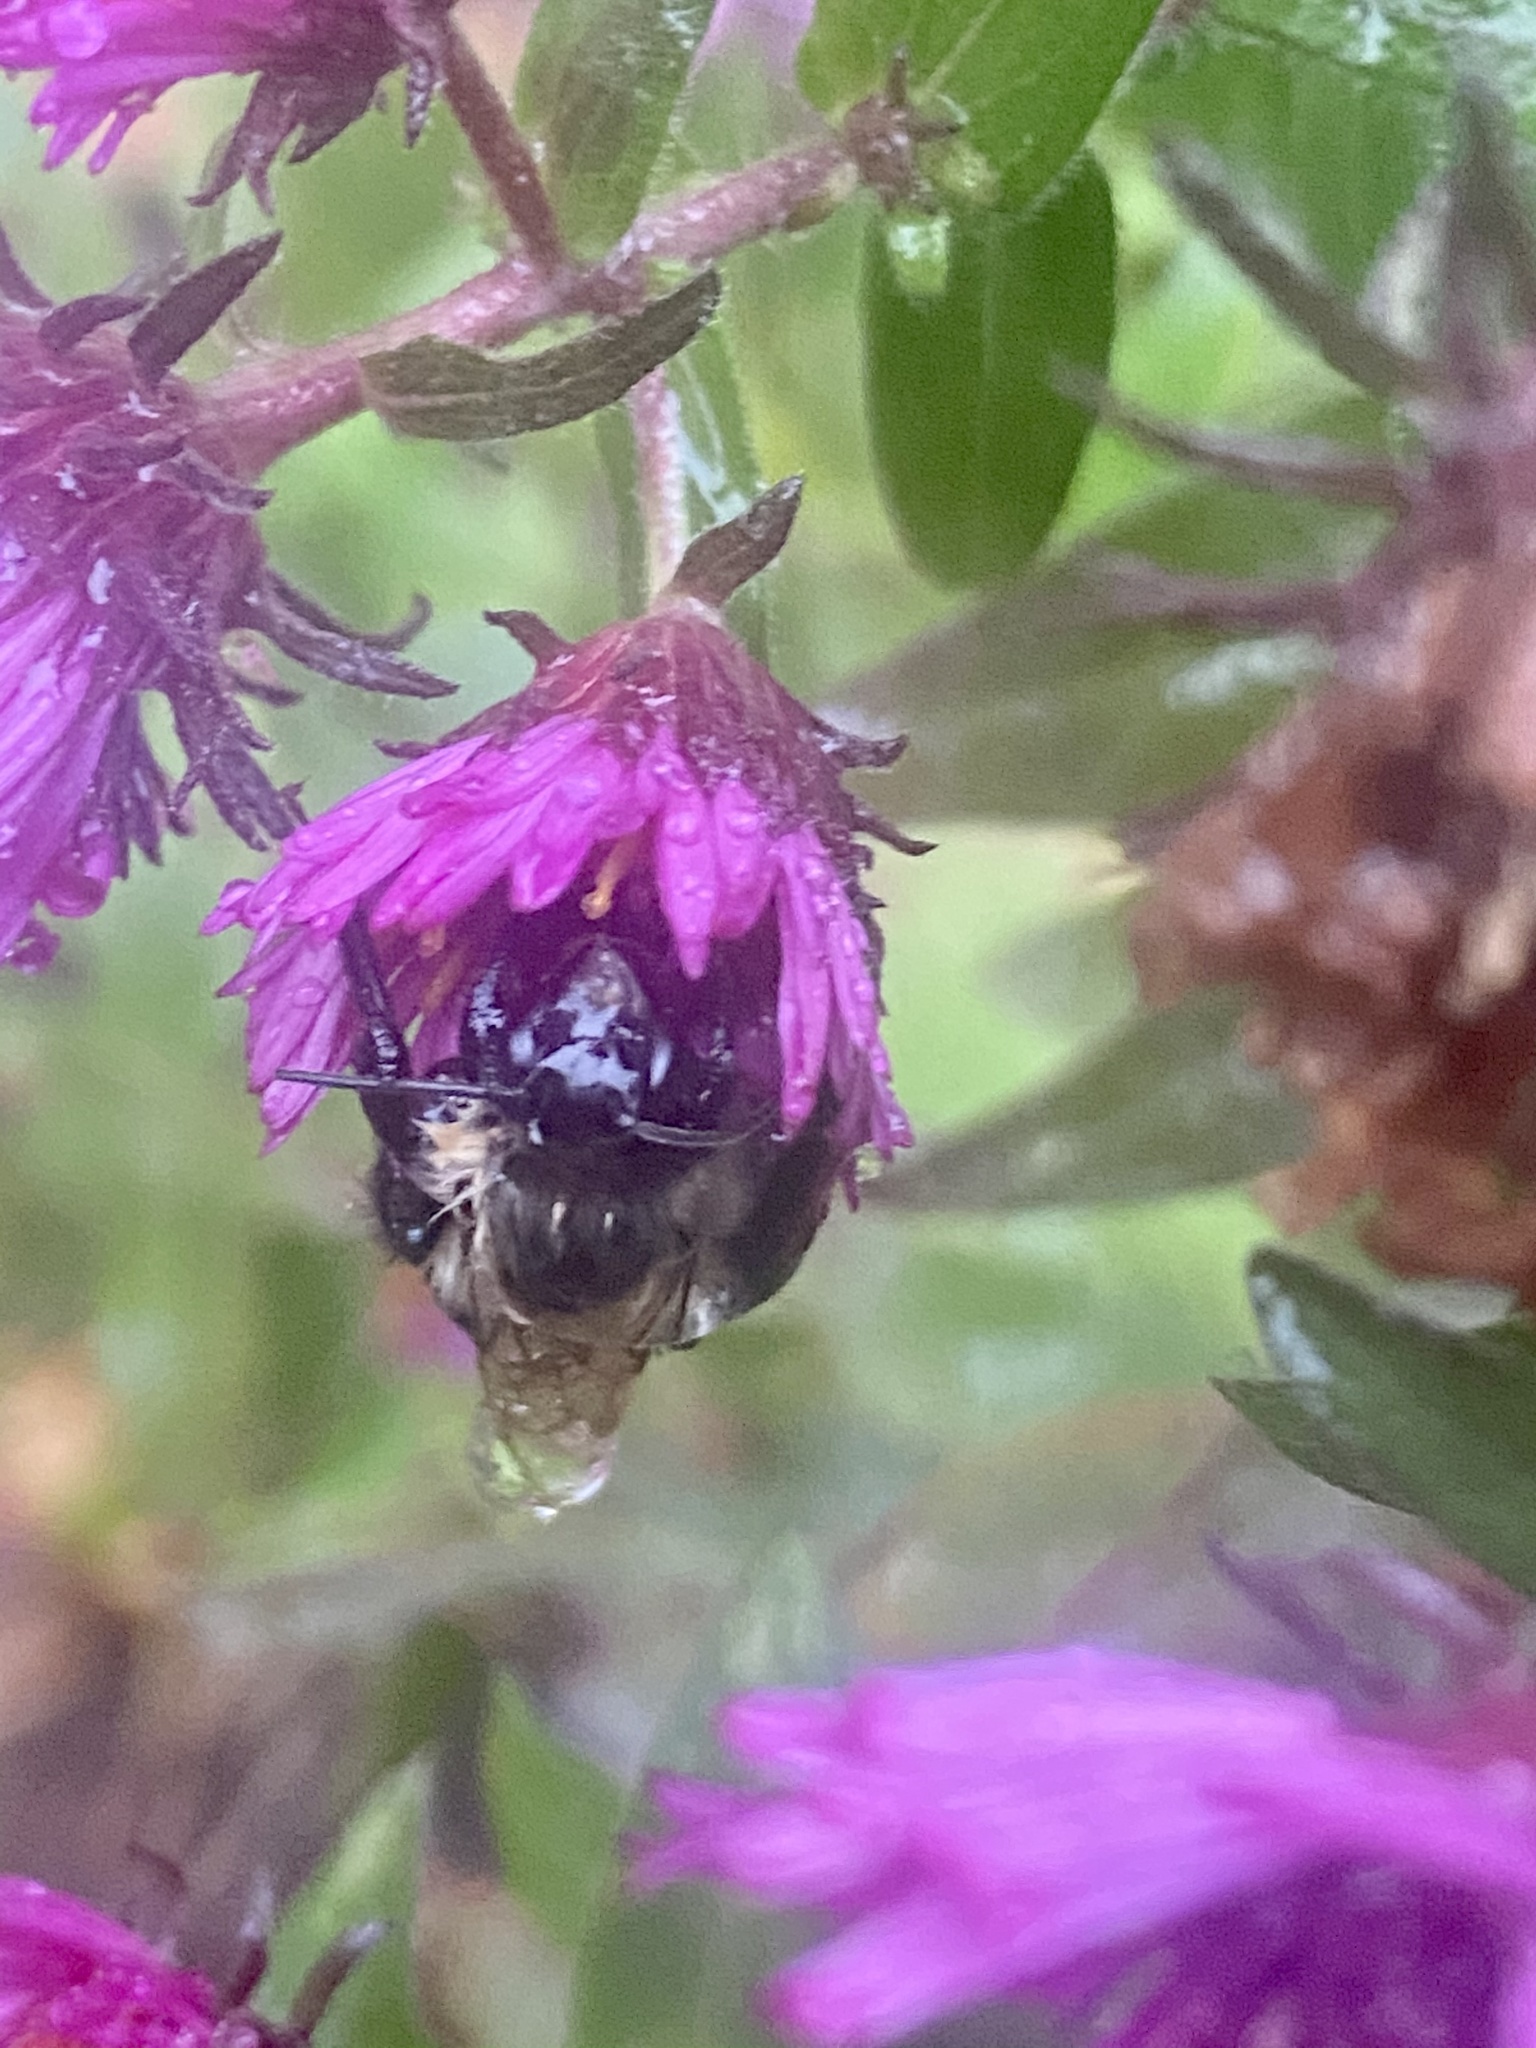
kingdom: Animalia
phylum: Arthropoda
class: Insecta
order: Hymenoptera
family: Apidae
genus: Bombus
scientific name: Bombus impatiens
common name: Common eastern bumble bee
